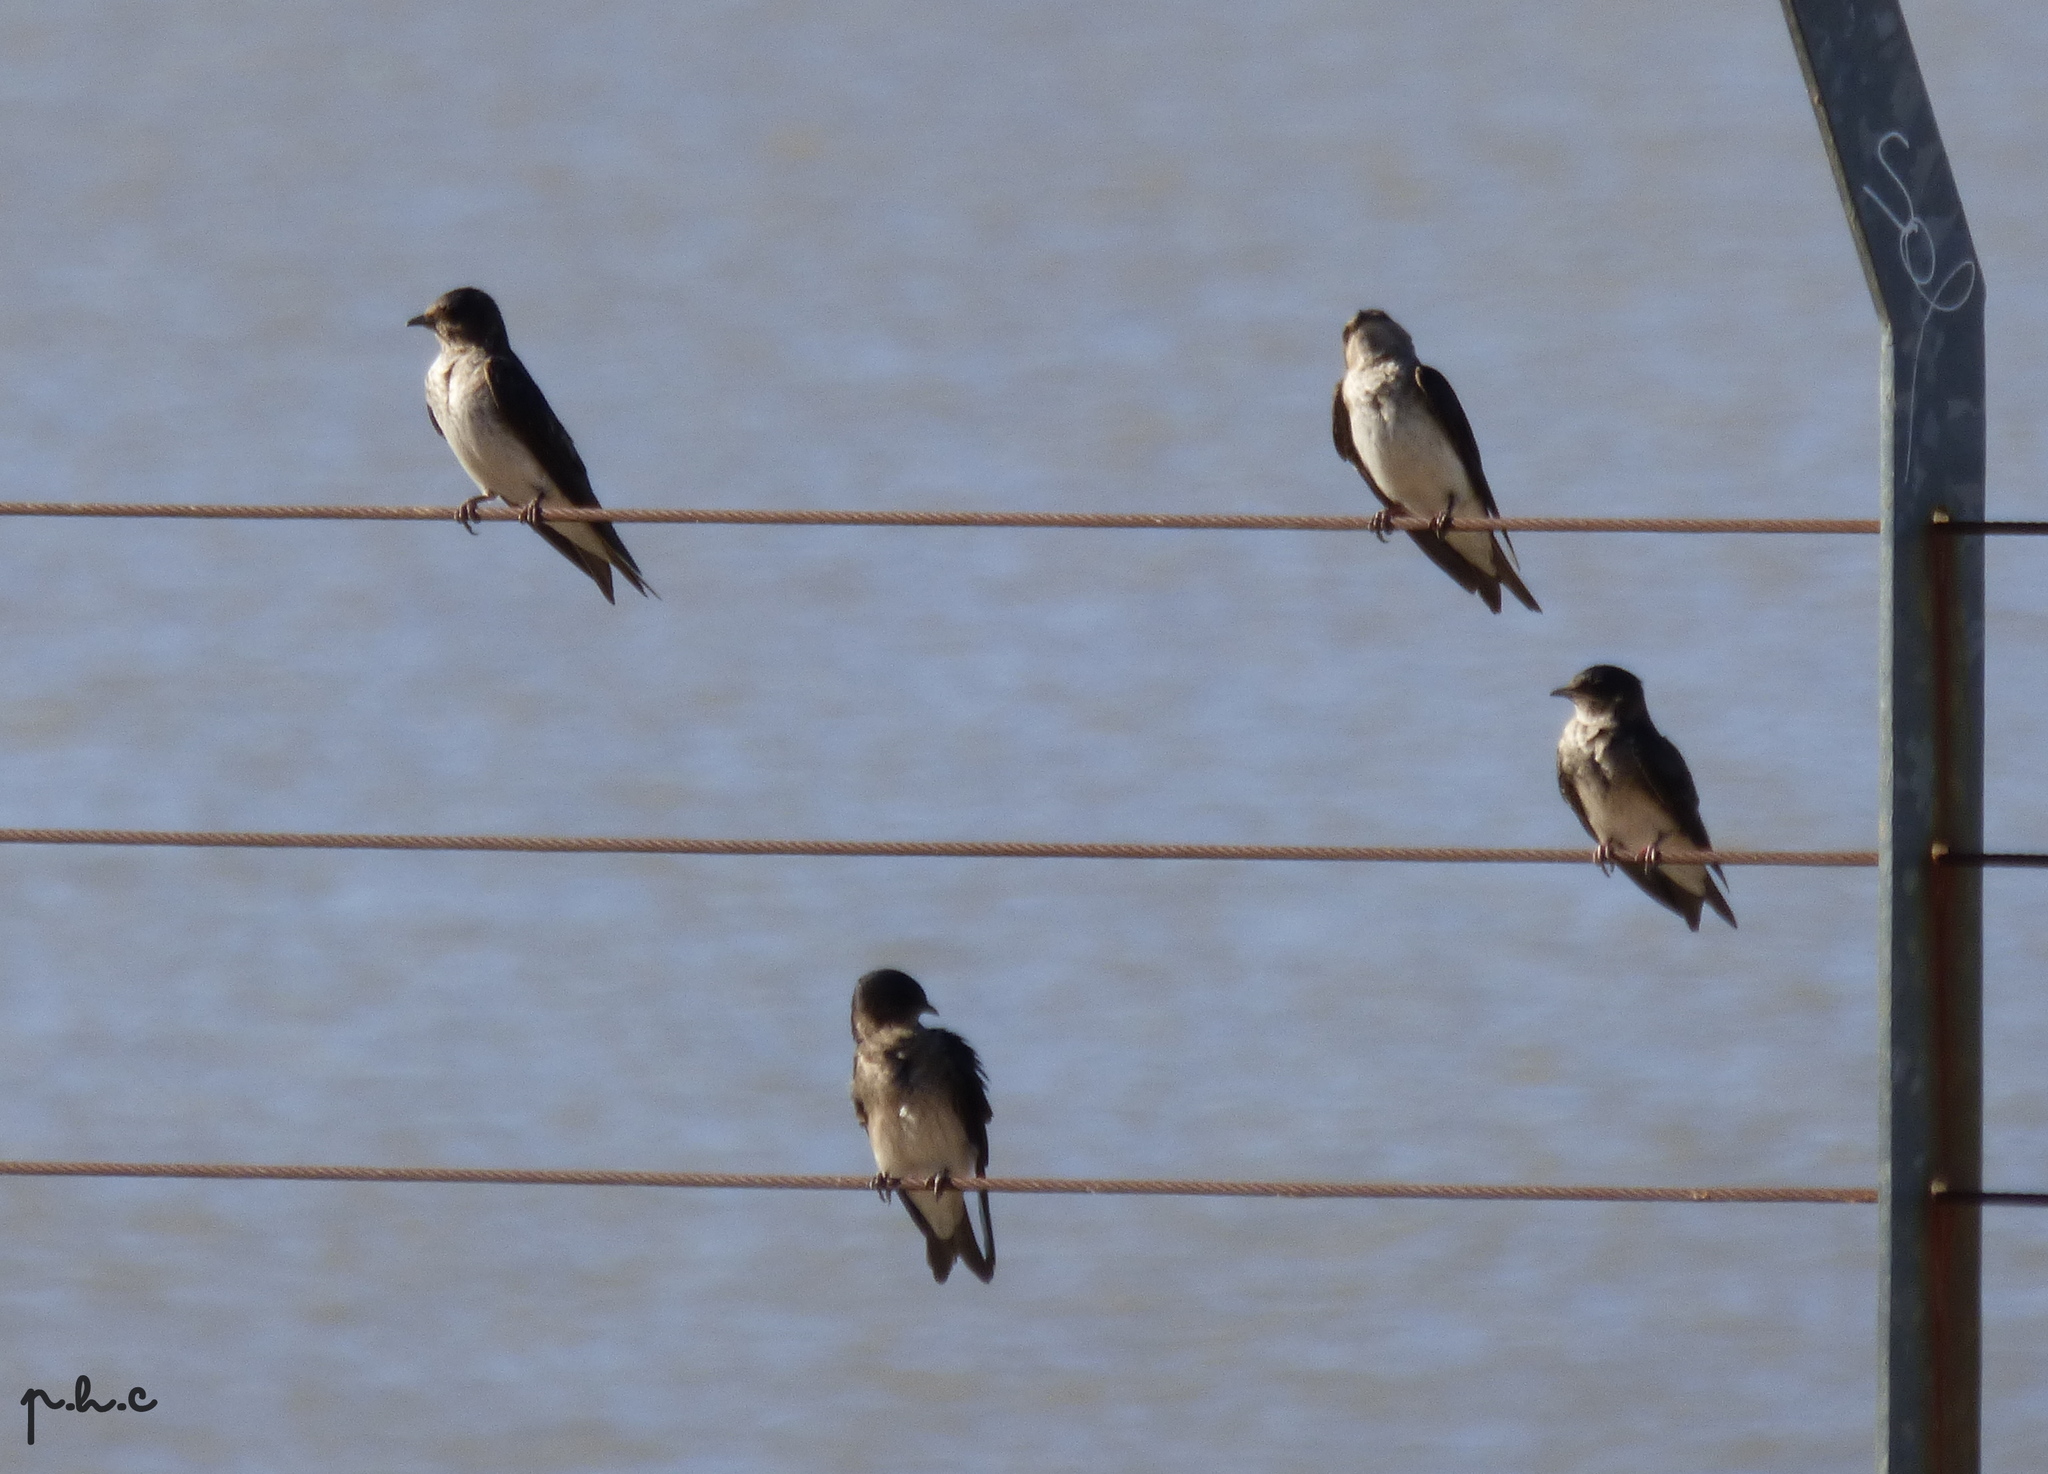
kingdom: Animalia
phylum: Chordata
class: Aves
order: Passeriformes
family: Hirundinidae
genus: Progne
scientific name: Progne chalybea
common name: Grey-breasted martin
